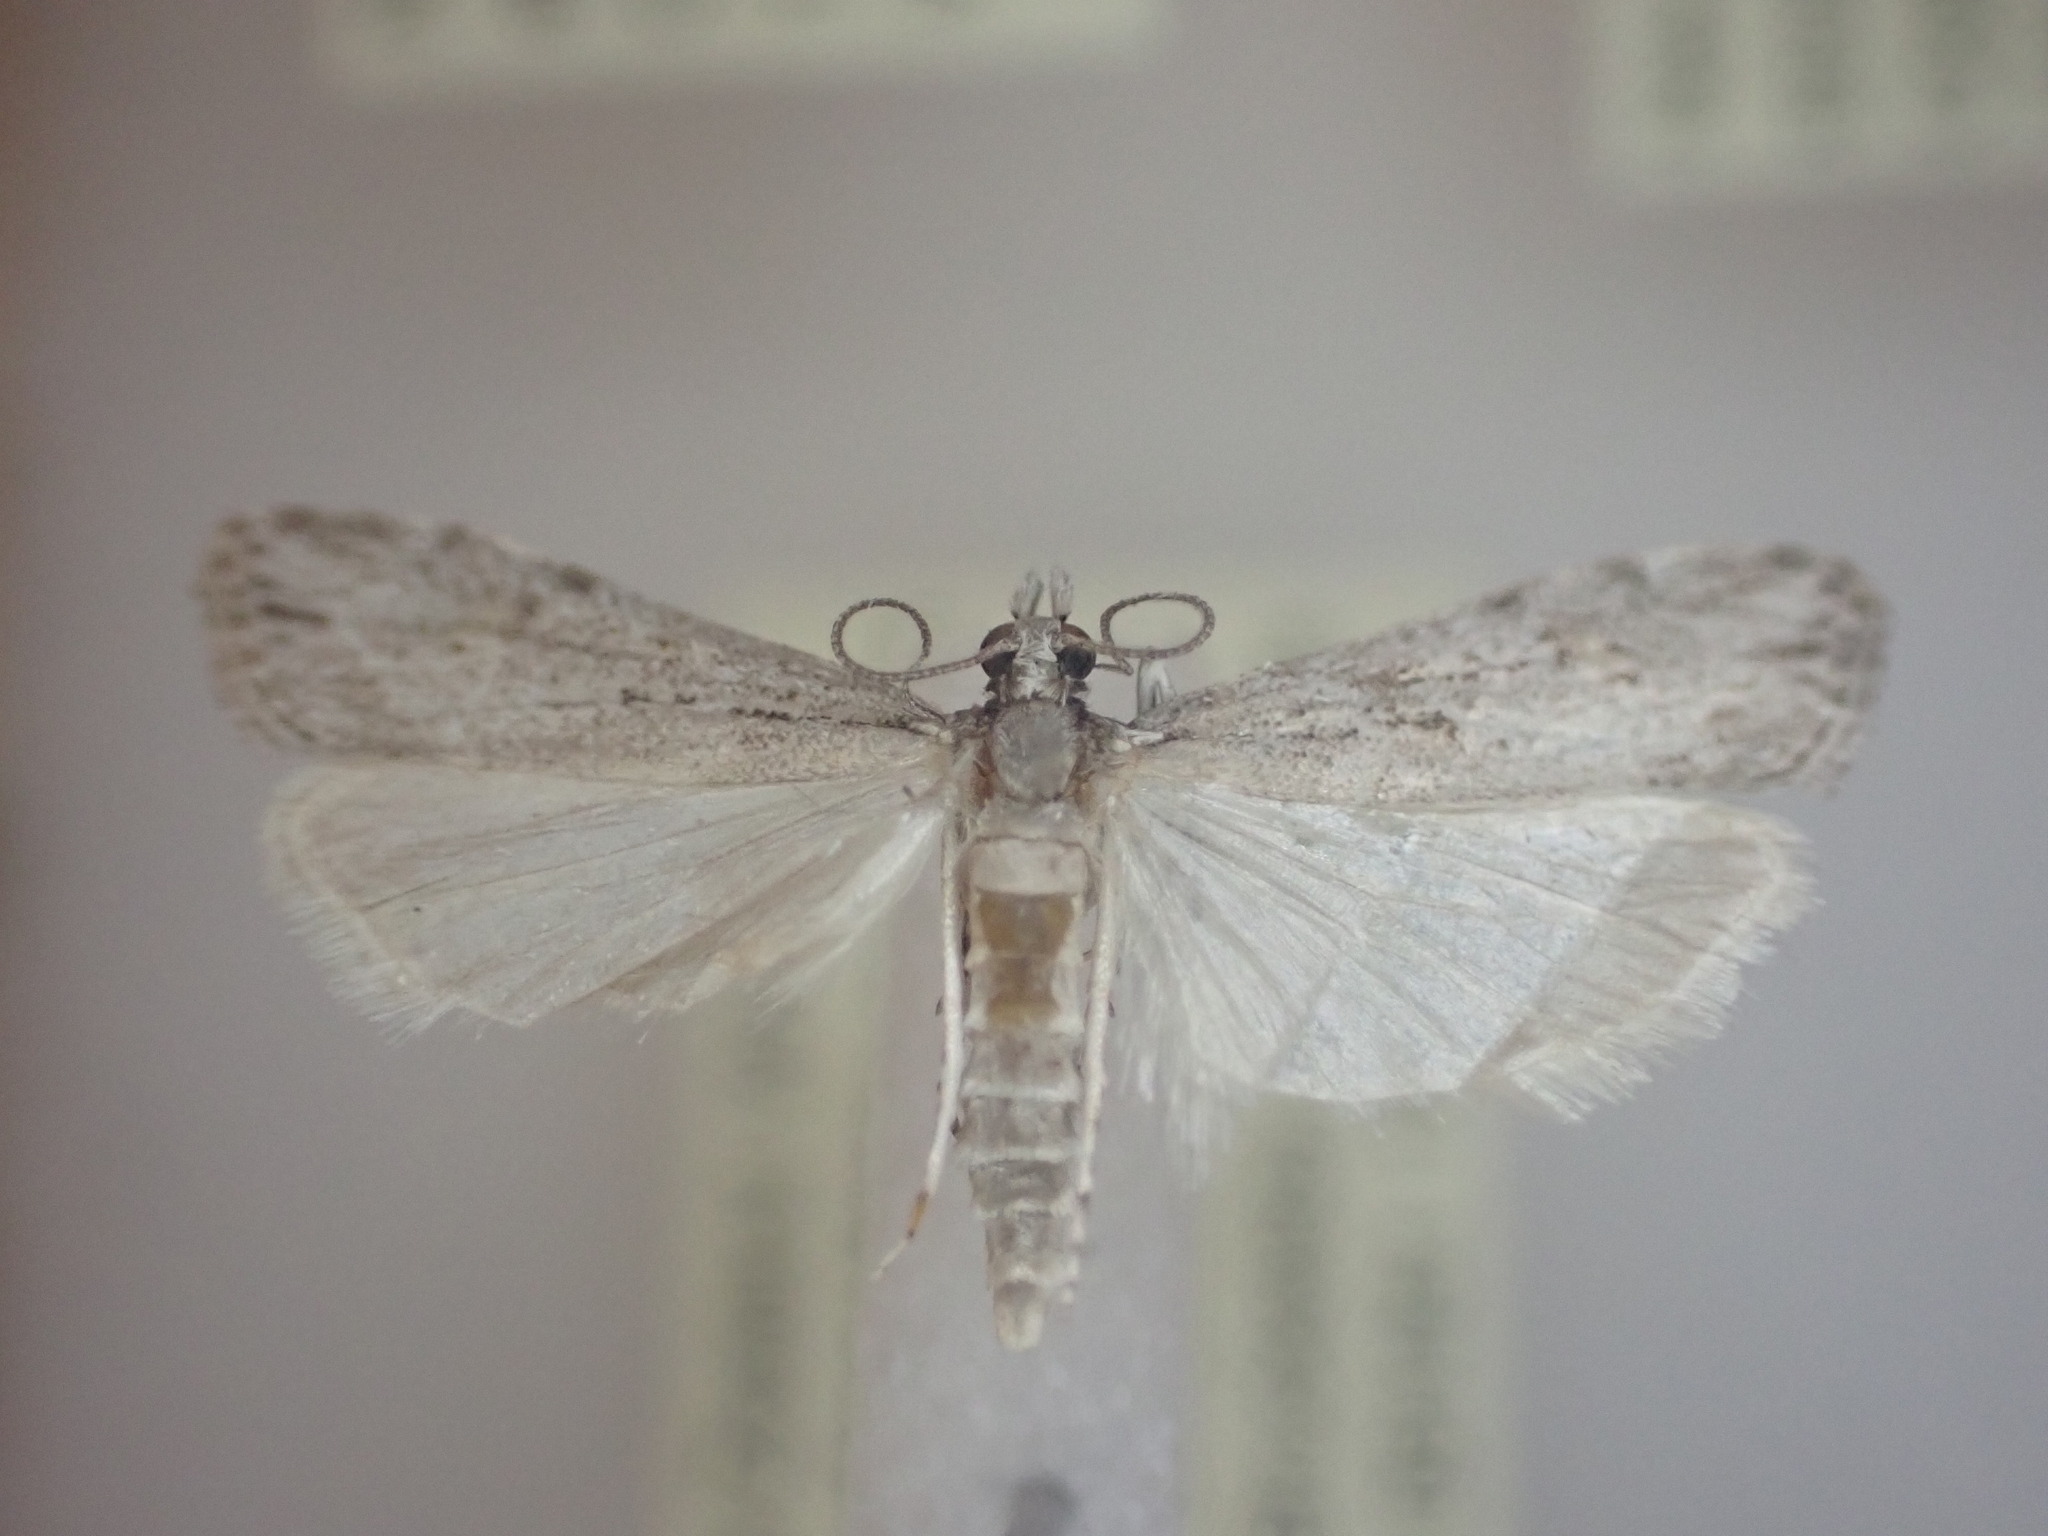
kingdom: Animalia
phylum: Arthropoda
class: Insecta
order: Lepidoptera
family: Crambidae
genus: Scoparia
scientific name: Scoparia chalicodes
